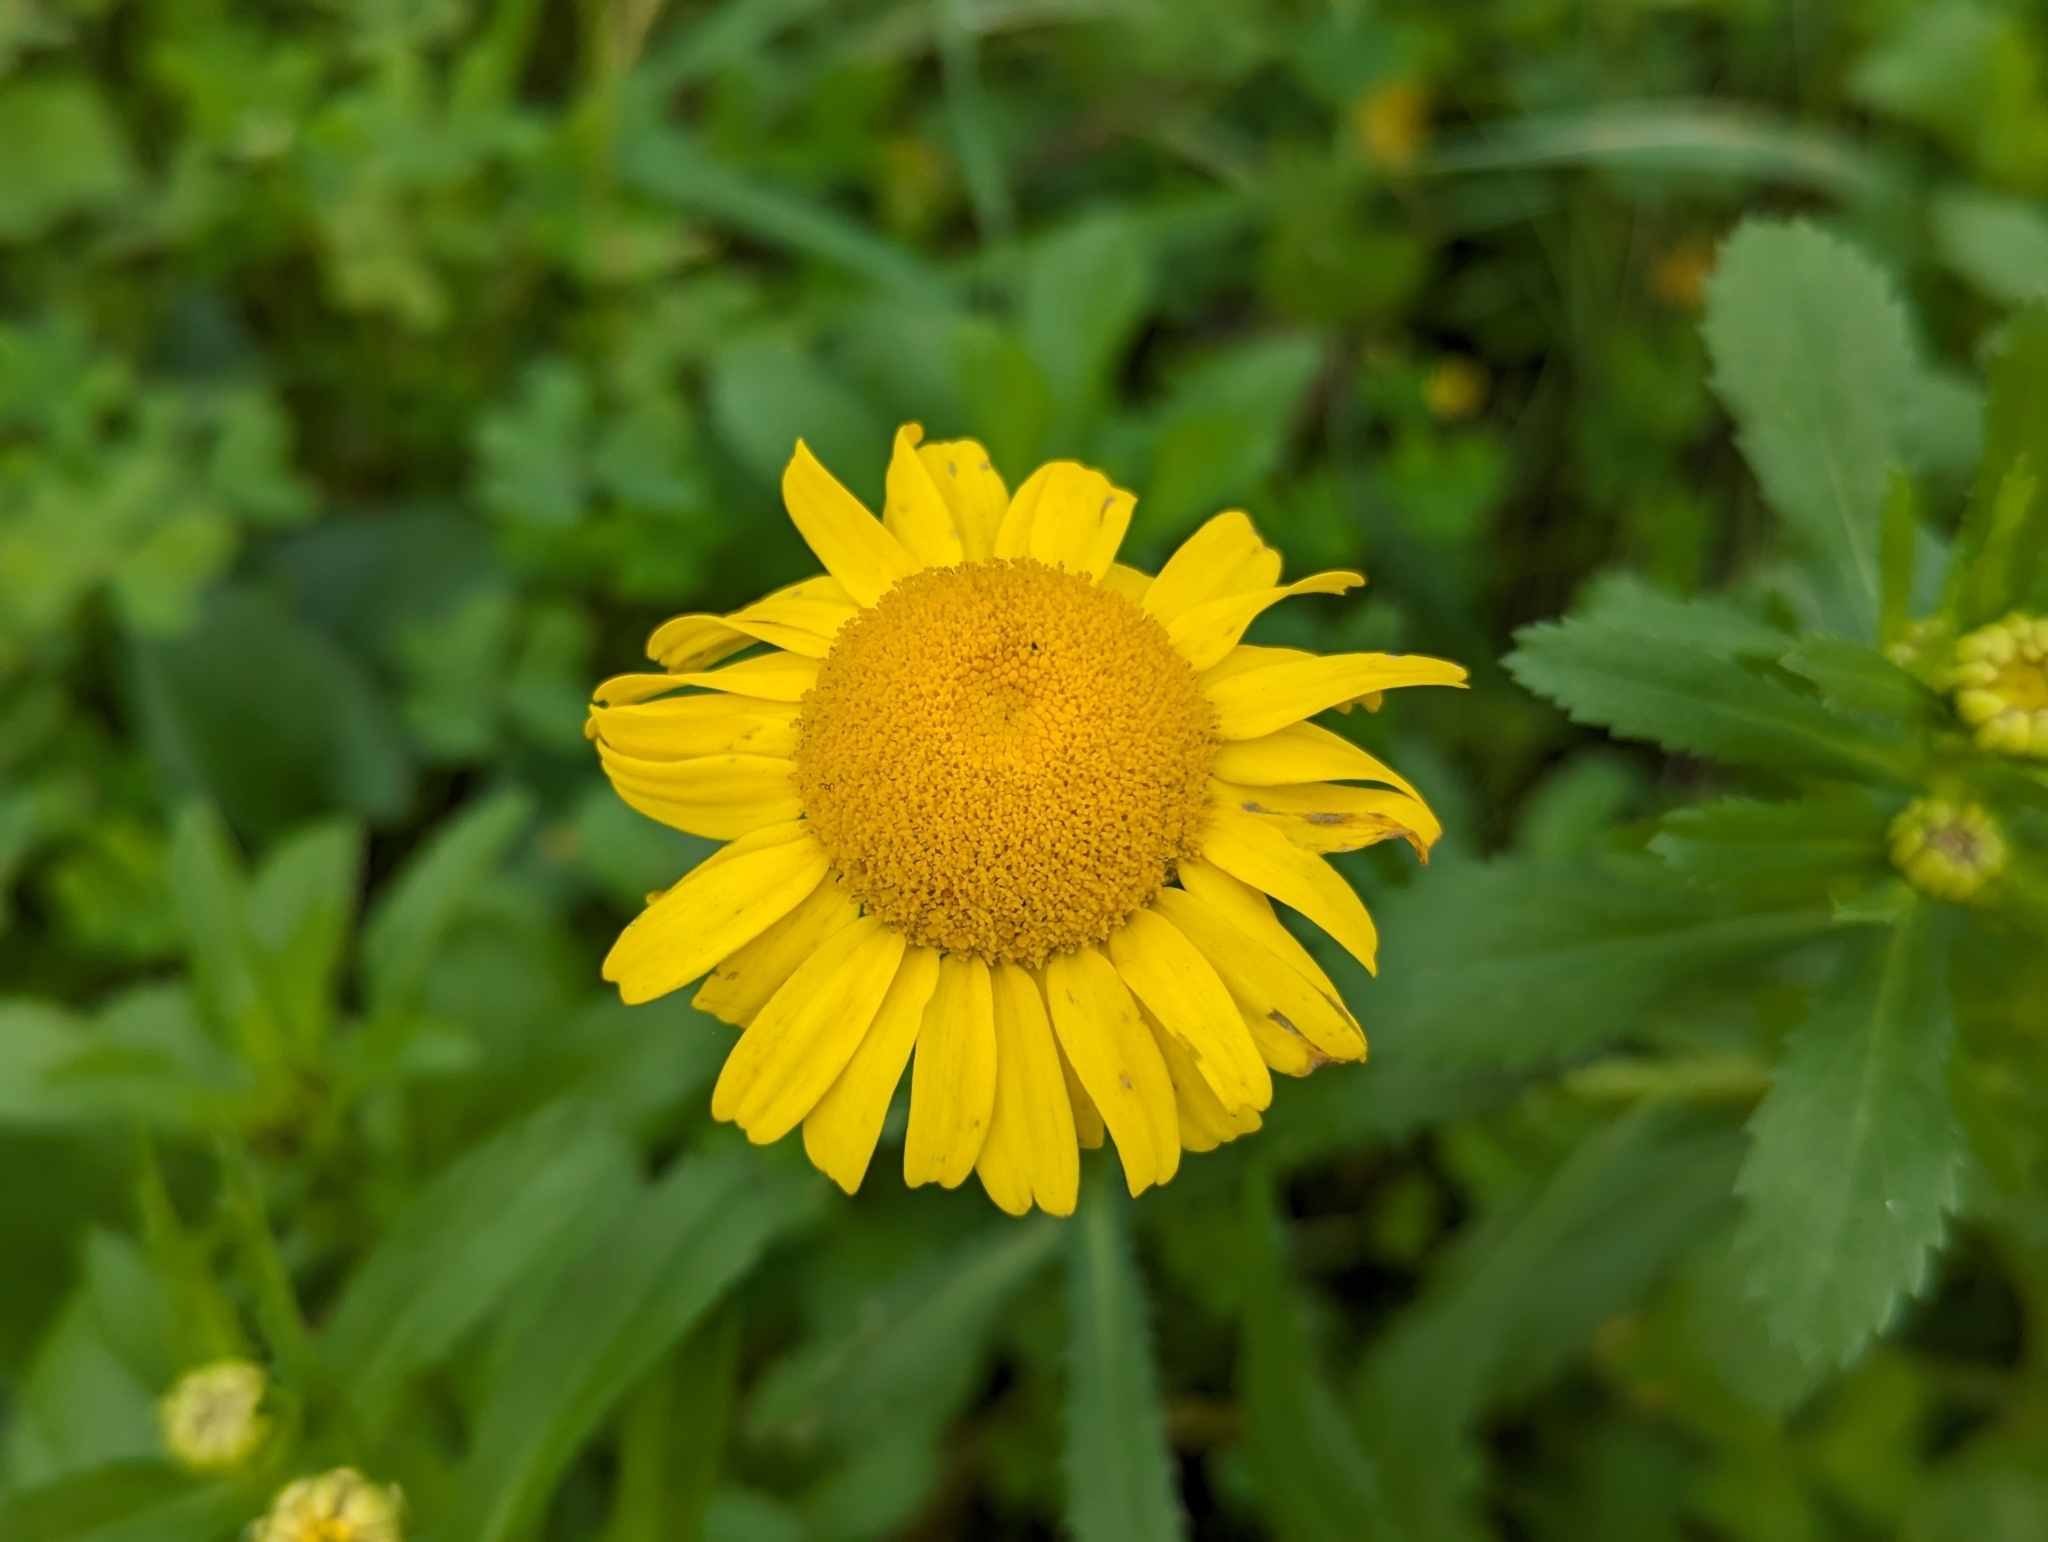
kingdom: Plantae
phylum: Tracheophyta
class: Magnoliopsida
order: Asterales
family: Asteraceae
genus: Coleostephus
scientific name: Coleostephus myconis
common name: Mediterranean marigold
